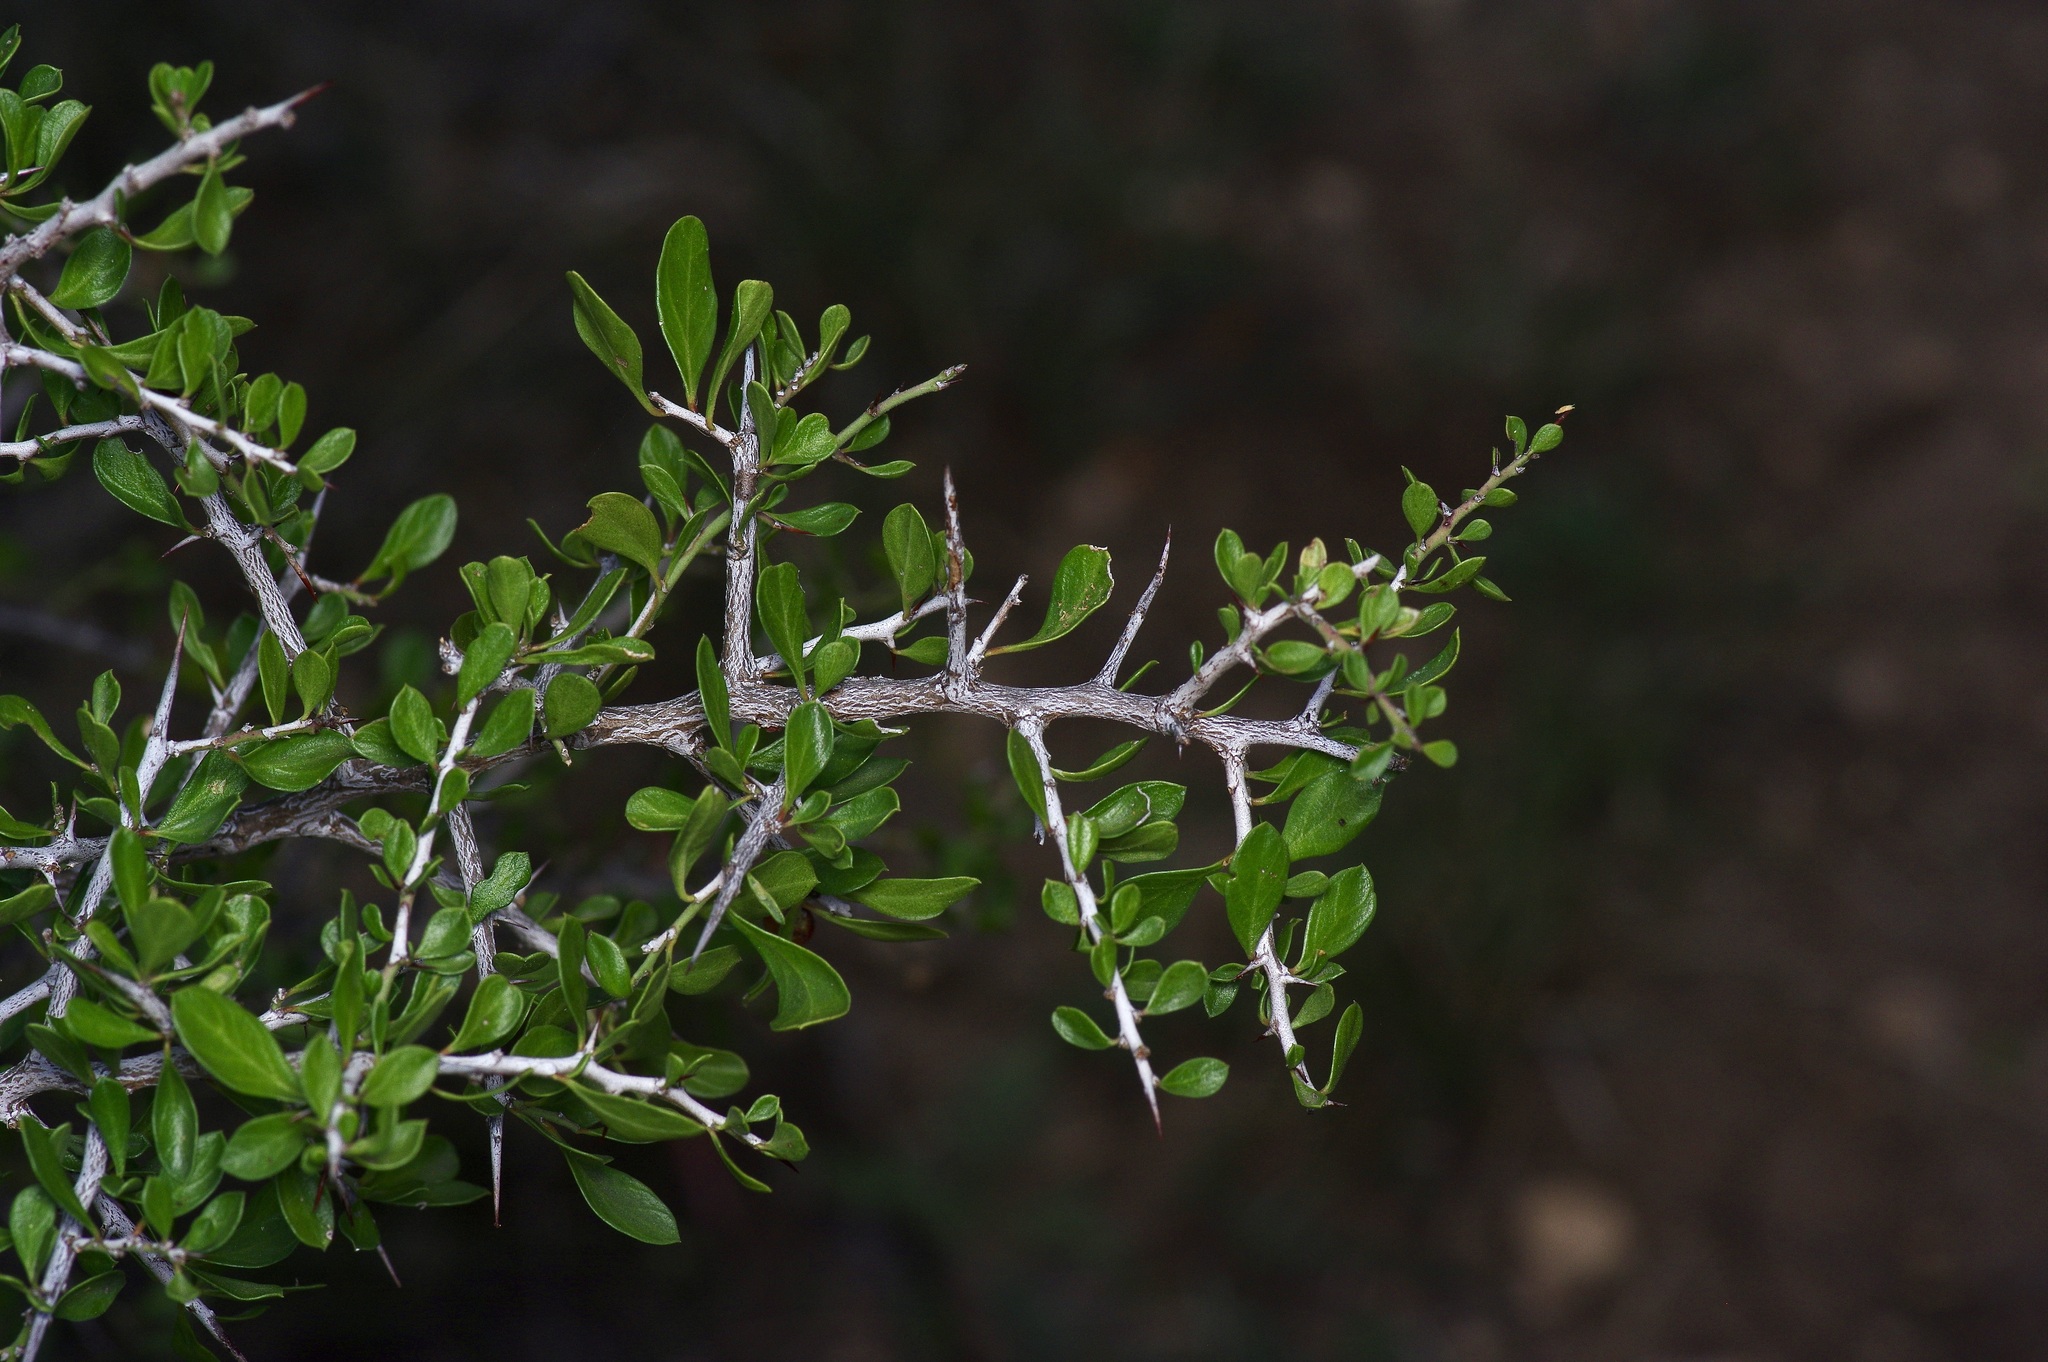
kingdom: Plantae
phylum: Tracheophyta
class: Magnoliopsida
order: Rosales
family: Rhamnaceae
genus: Condalia
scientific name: Condalia viridis
